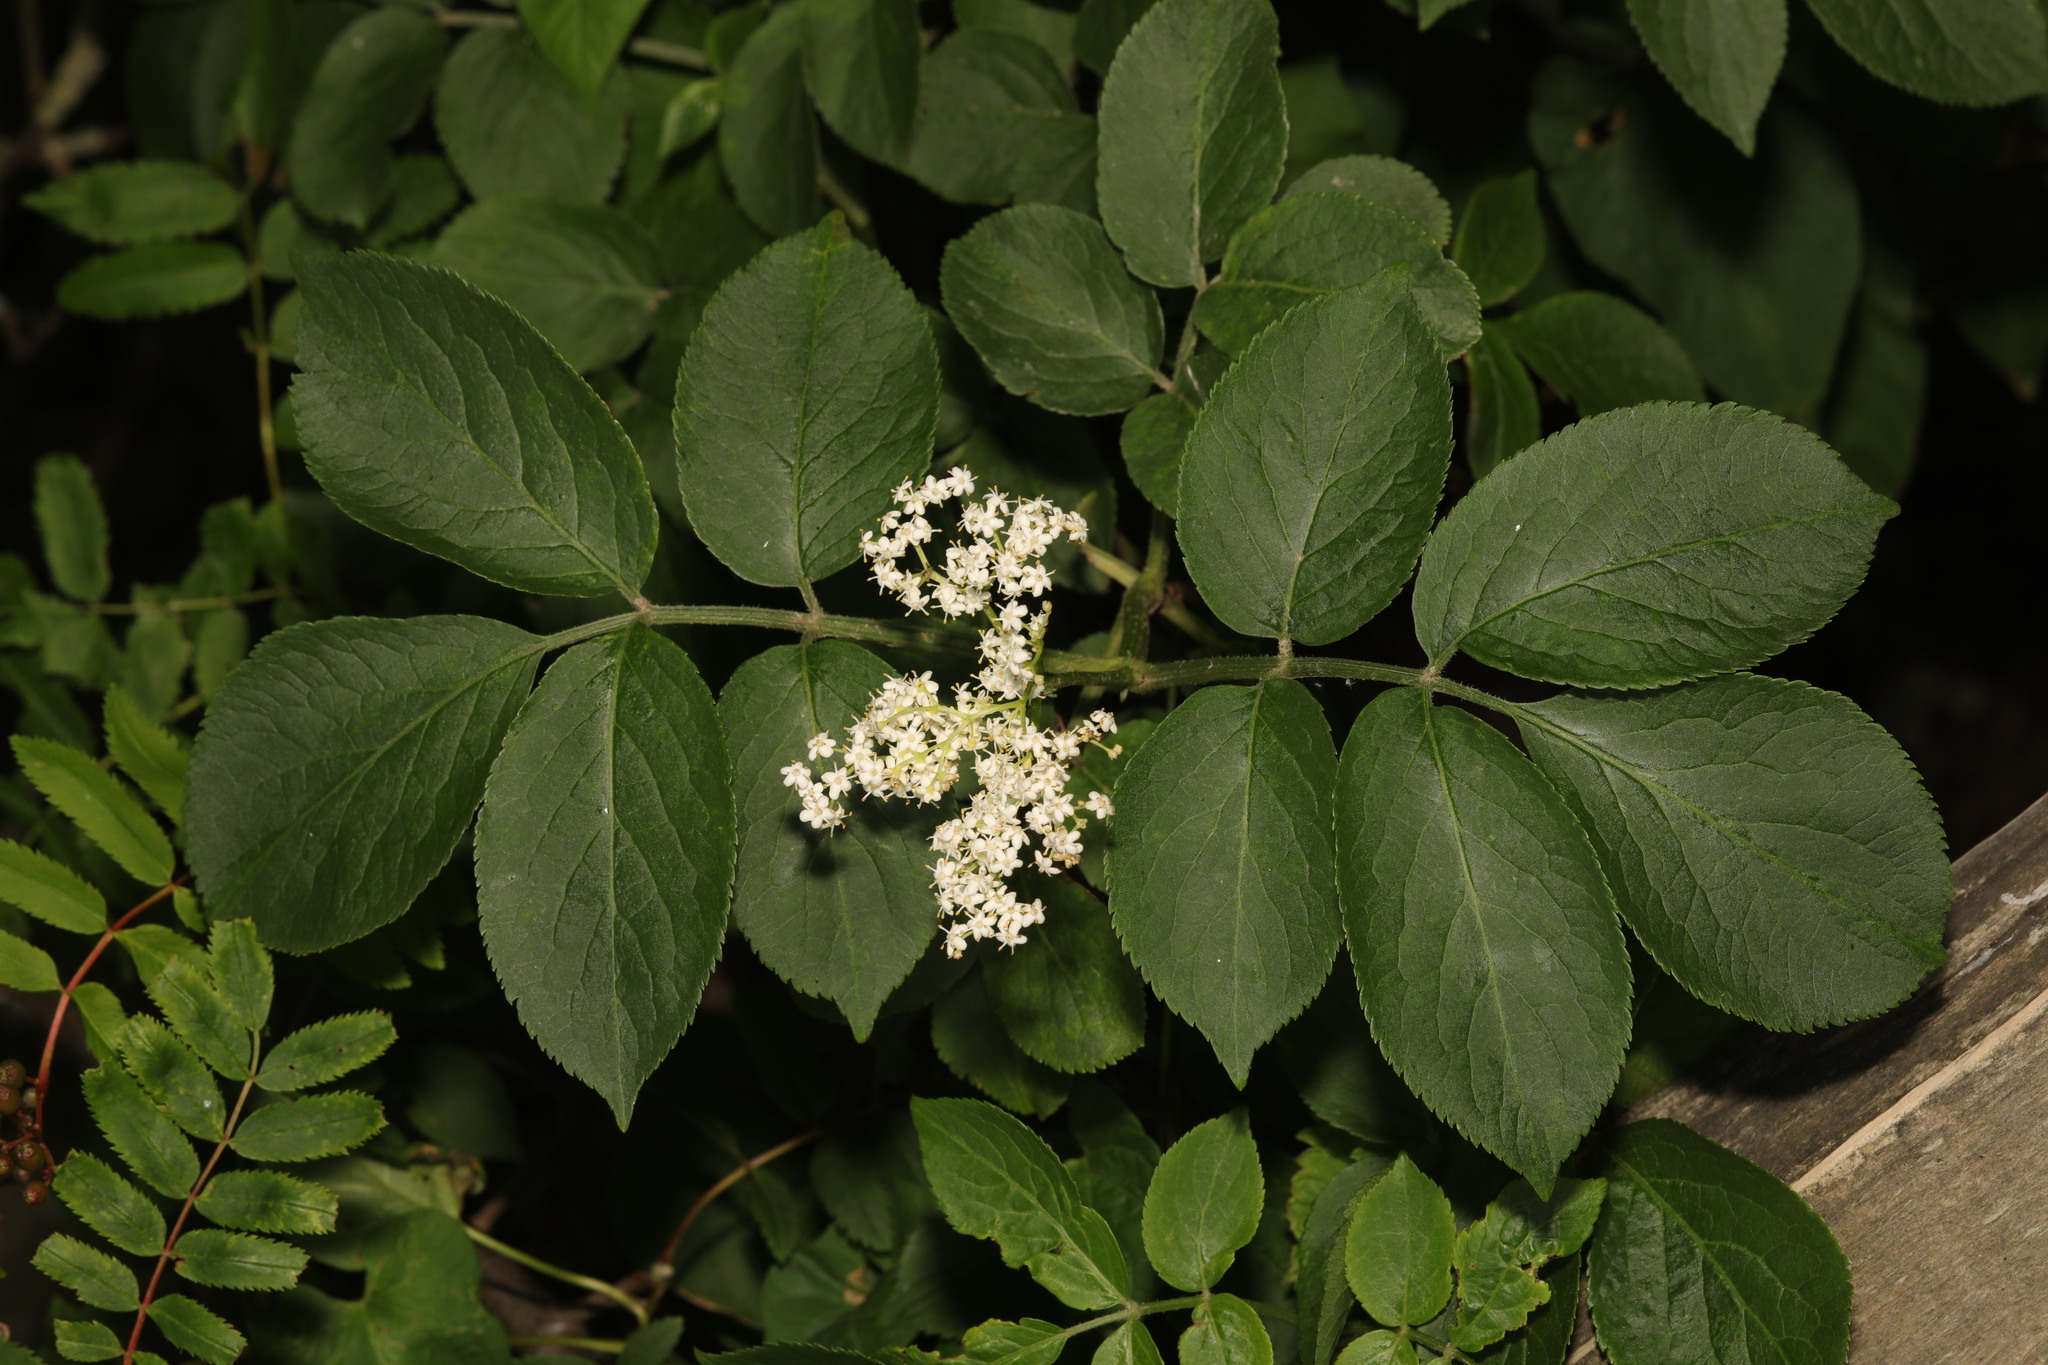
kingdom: Plantae
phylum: Tracheophyta
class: Magnoliopsida
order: Dipsacales
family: Viburnaceae
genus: Sambucus
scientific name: Sambucus nigra
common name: Elder
